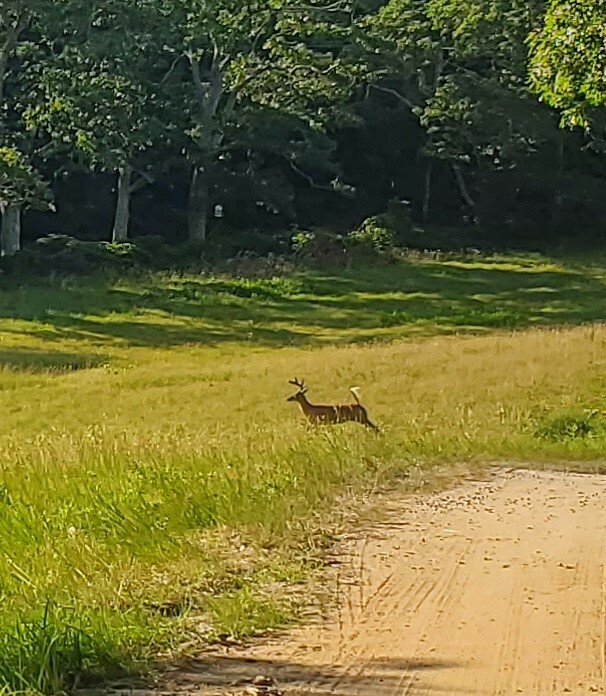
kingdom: Animalia
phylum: Chordata
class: Mammalia
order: Artiodactyla
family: Cervidae
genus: Odocoileus
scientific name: Odocoileus virginianus
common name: White-tailed deer
